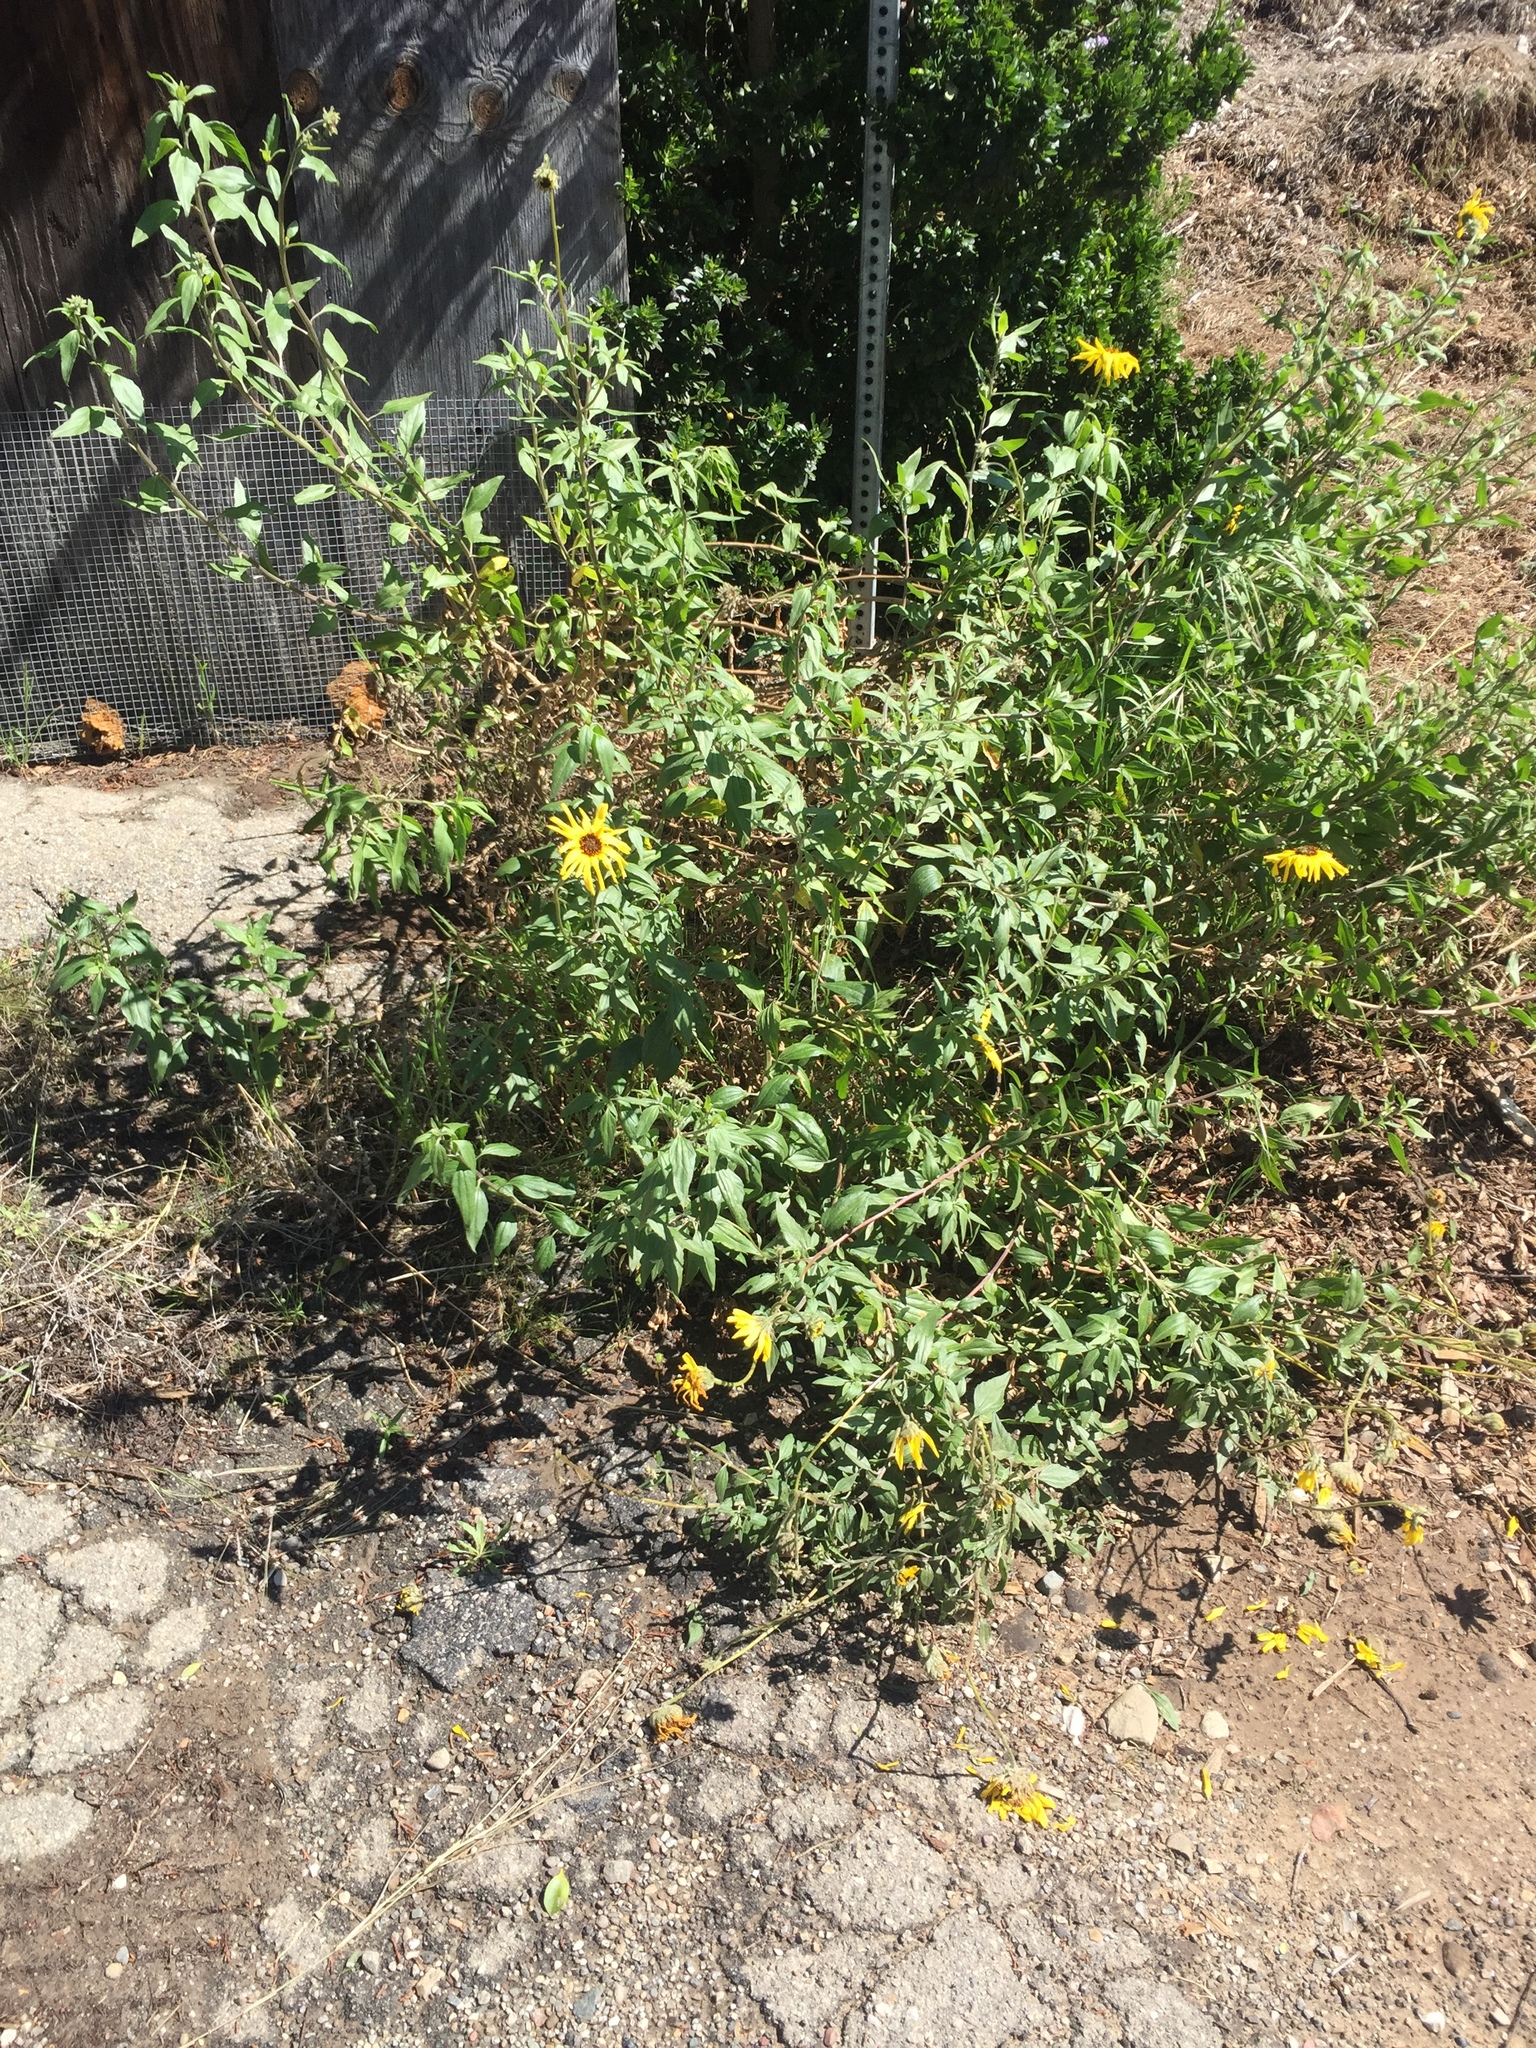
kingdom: Plantae
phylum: Tracheophyta
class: Magnoliopsida
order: Asterales
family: Asteraceae
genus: Encelia
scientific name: Encelia californica
